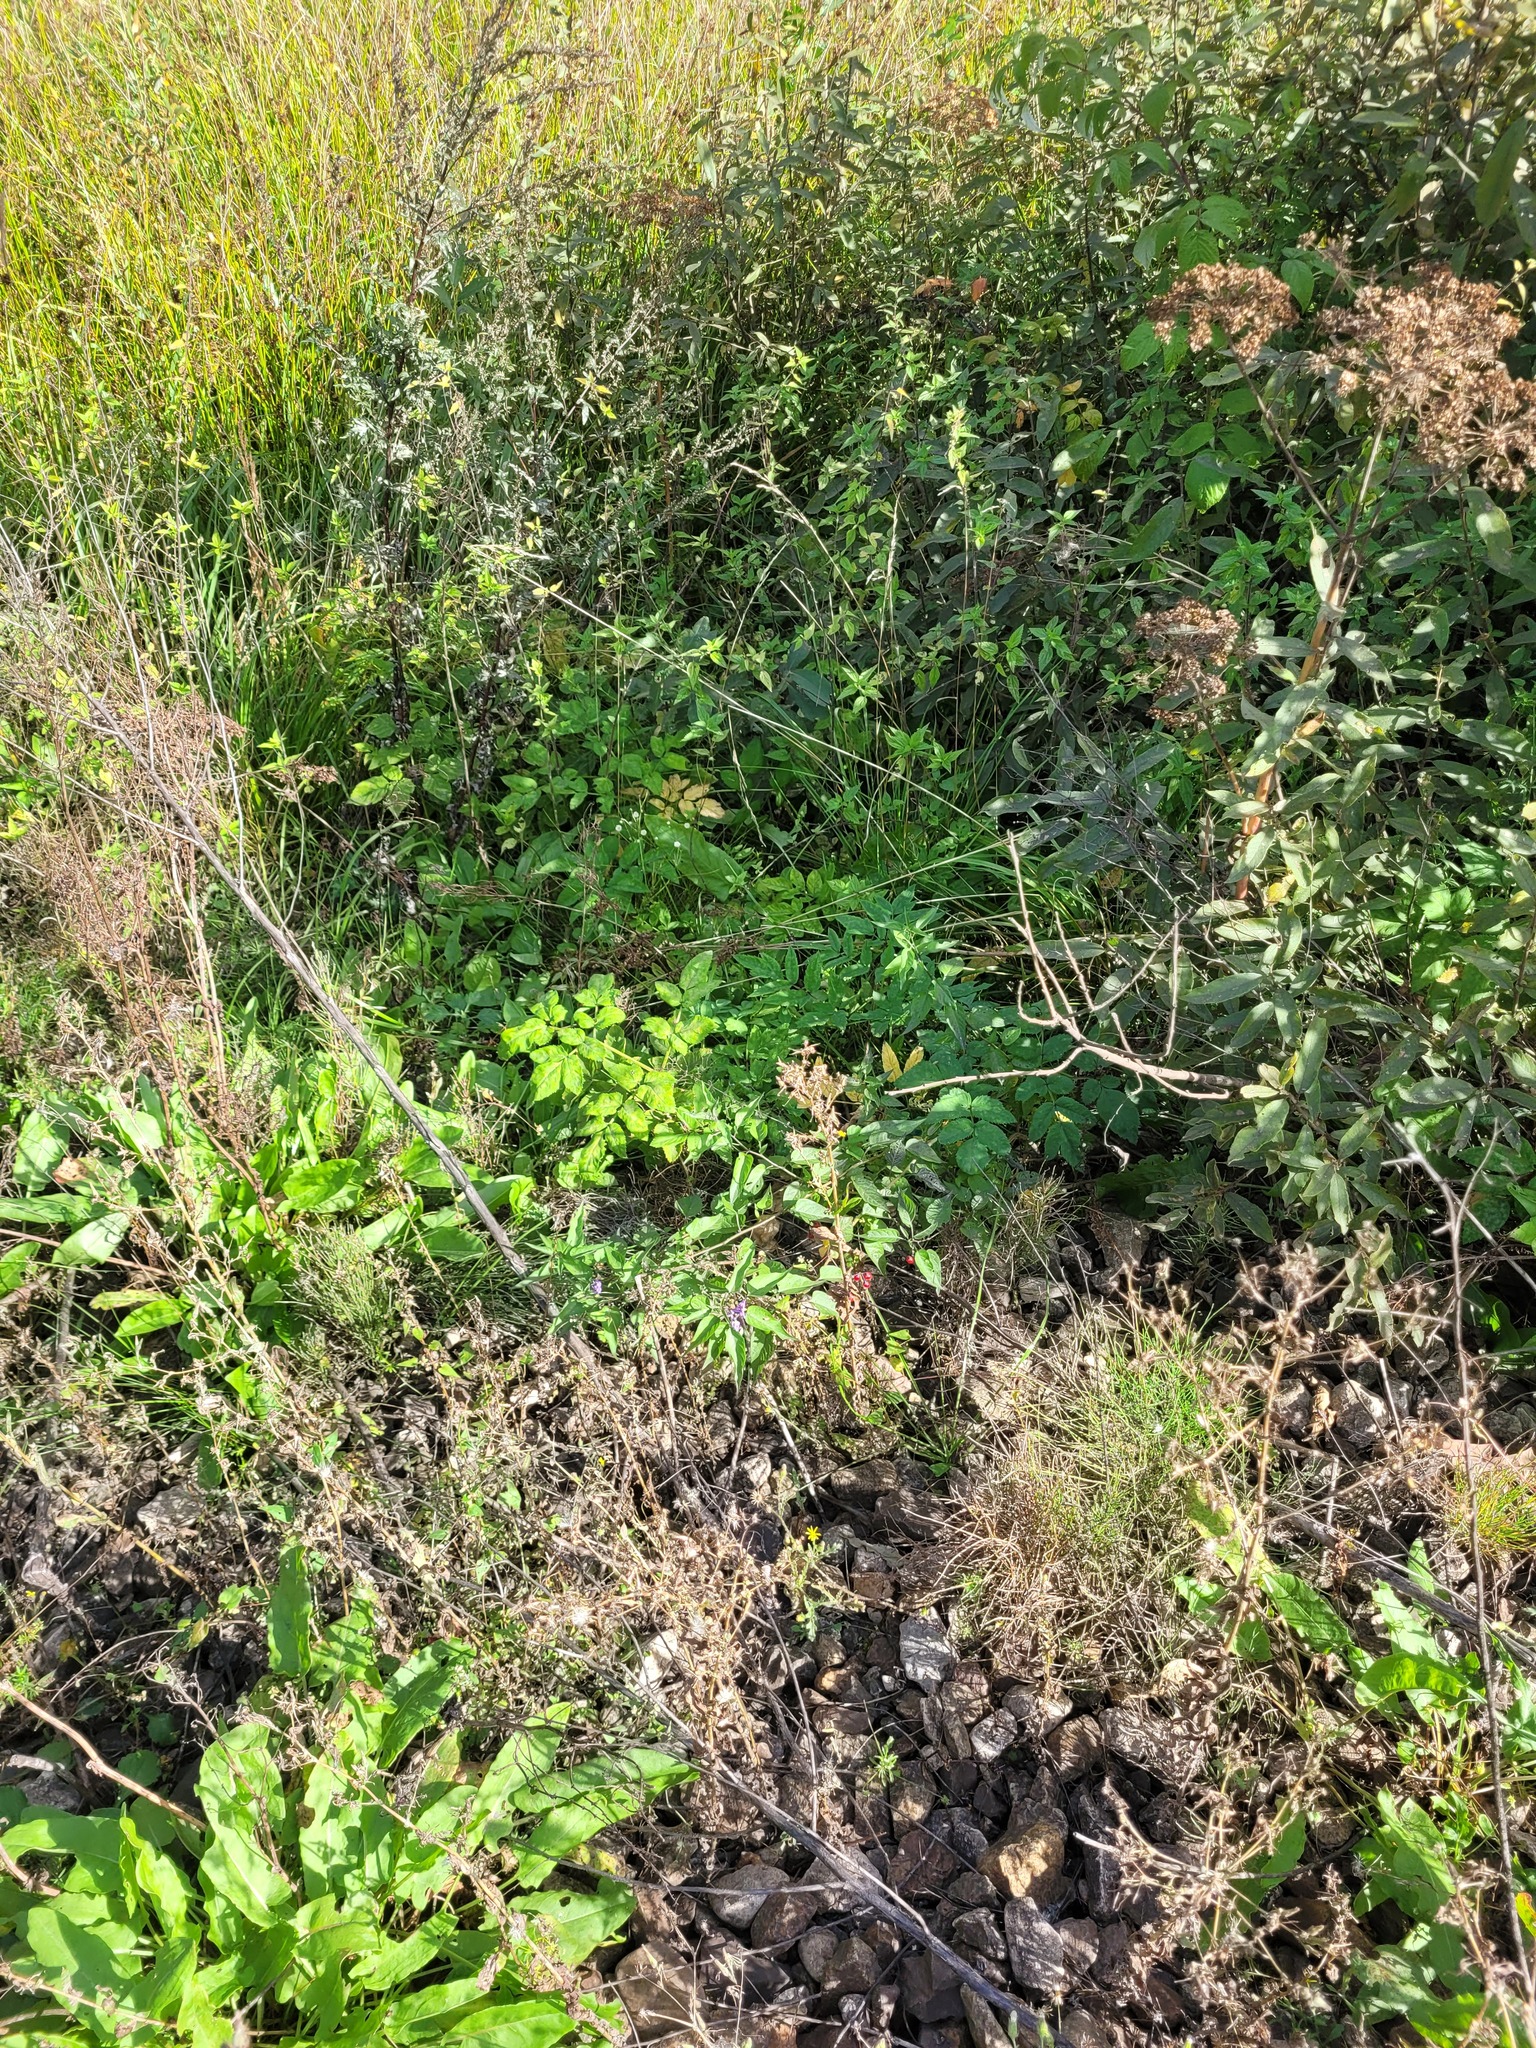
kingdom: Plantae
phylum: Tracheophyta
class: Magnoliopsida
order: Apiales
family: Apiaceae
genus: Angelica
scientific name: Angelica sylvestris
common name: Wild angelica
